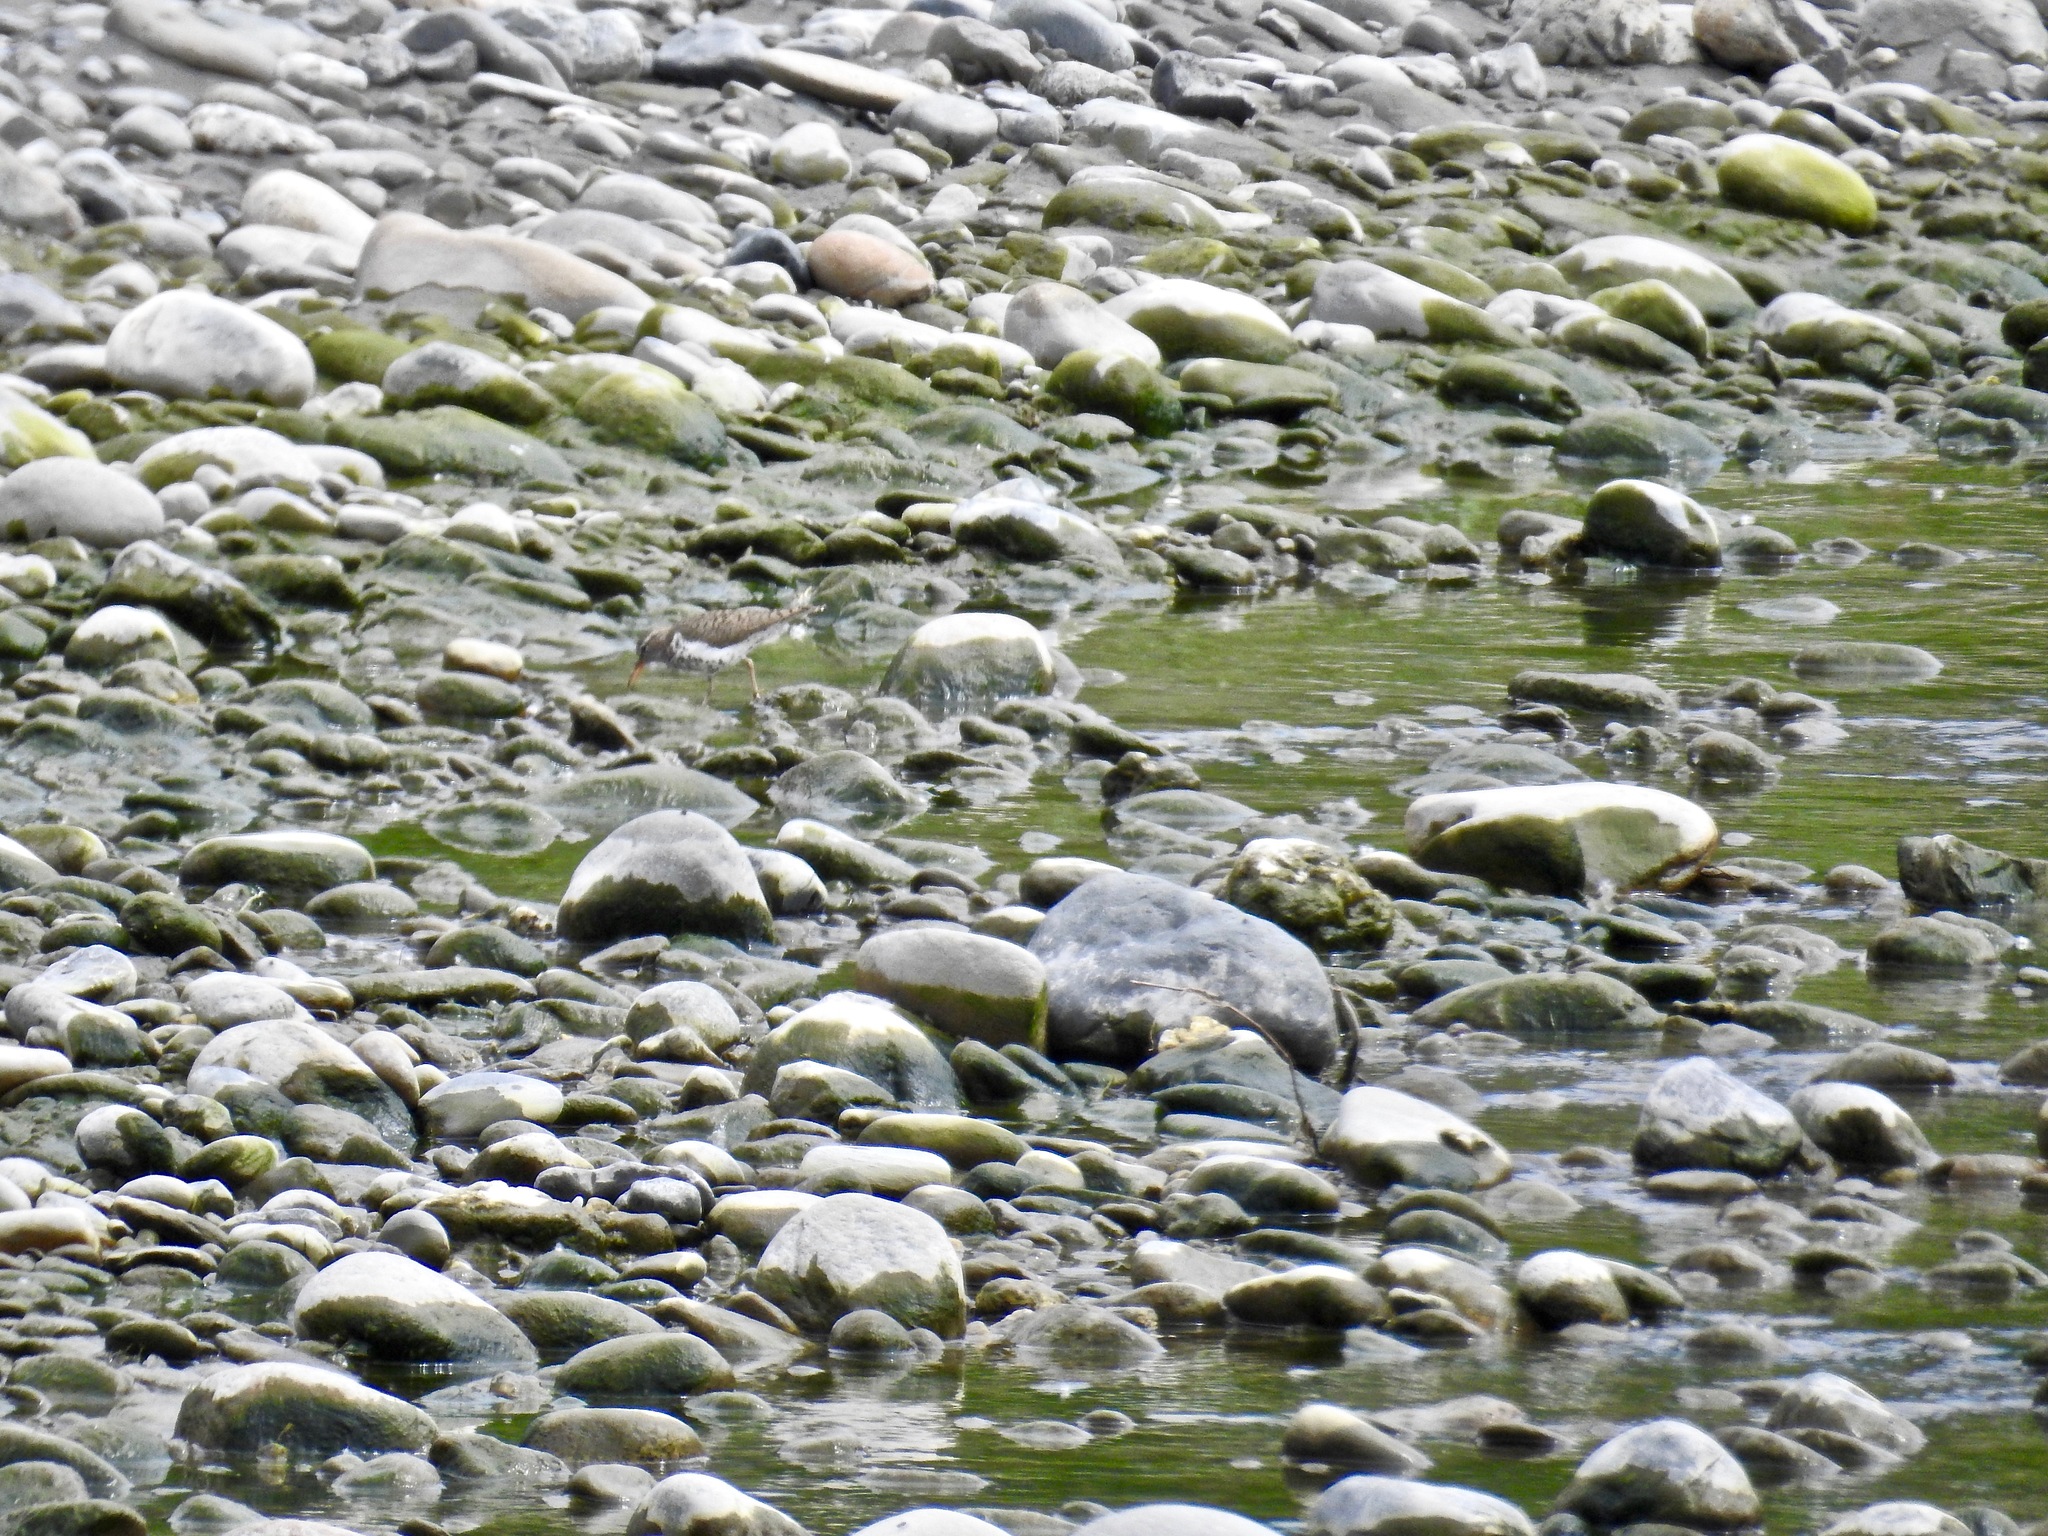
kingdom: Animalia
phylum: Chordata
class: Aves
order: Charadriiformes
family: Scolopacidae
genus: Actitis
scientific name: Actitis macularius
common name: Spotted sandpiper
